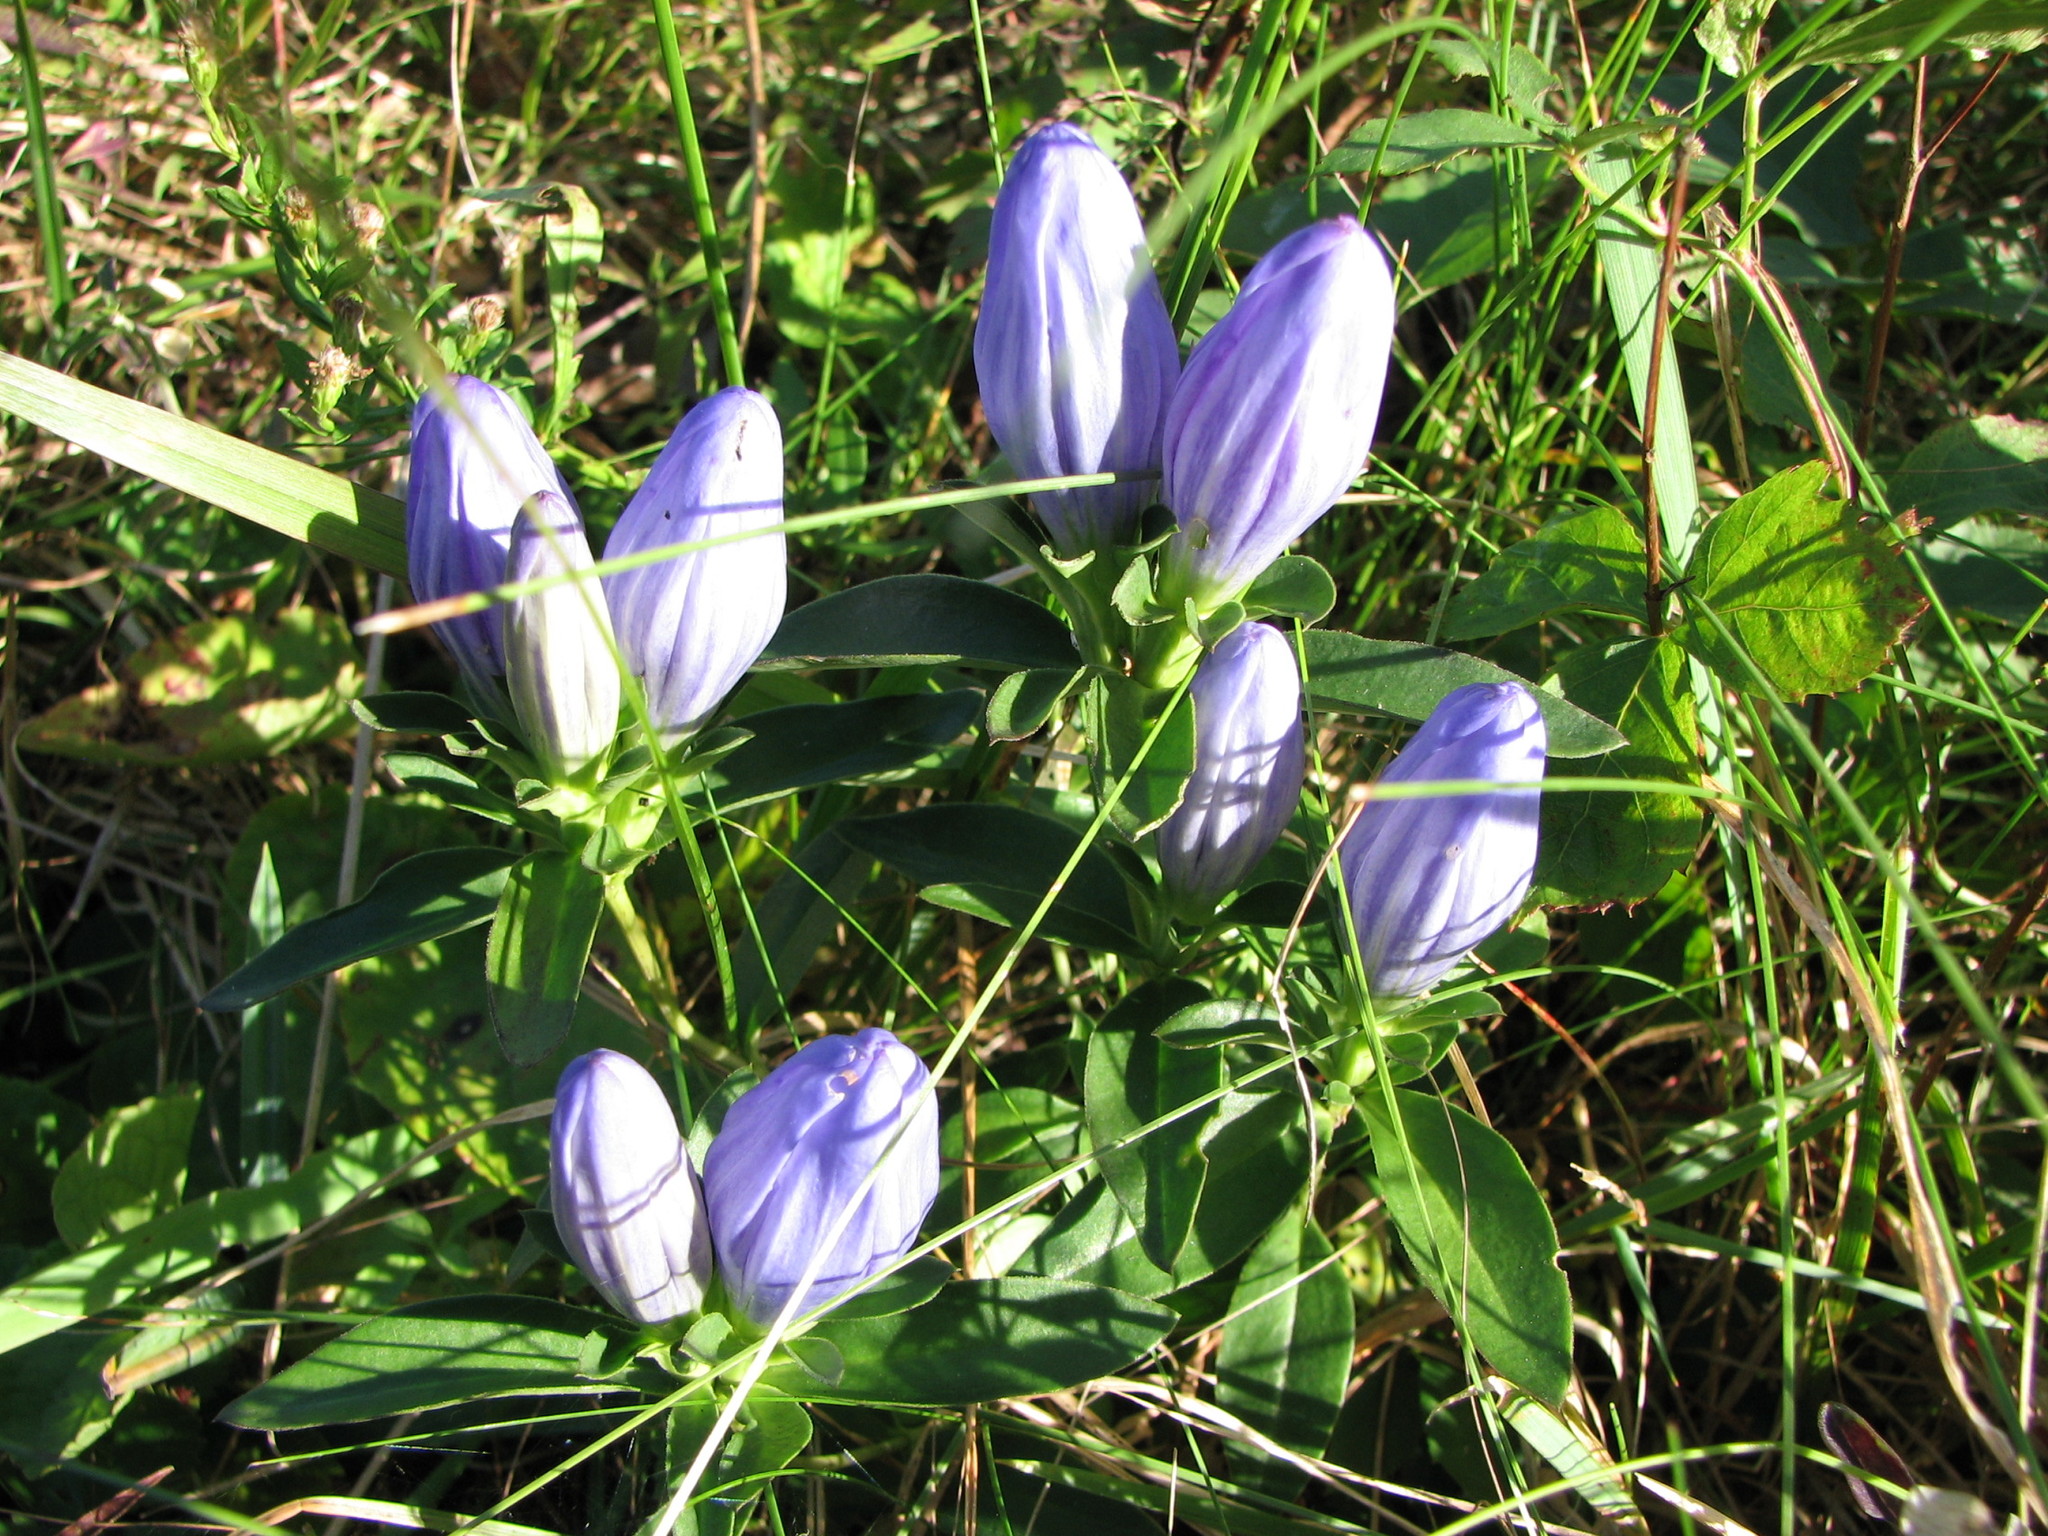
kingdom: Plantae
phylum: Tracheophyta
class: Magnoliopsida
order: Gentianales
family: Gentianaceae
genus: Gentiana
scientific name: Gentiana saponaria
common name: Soapwort gentian
